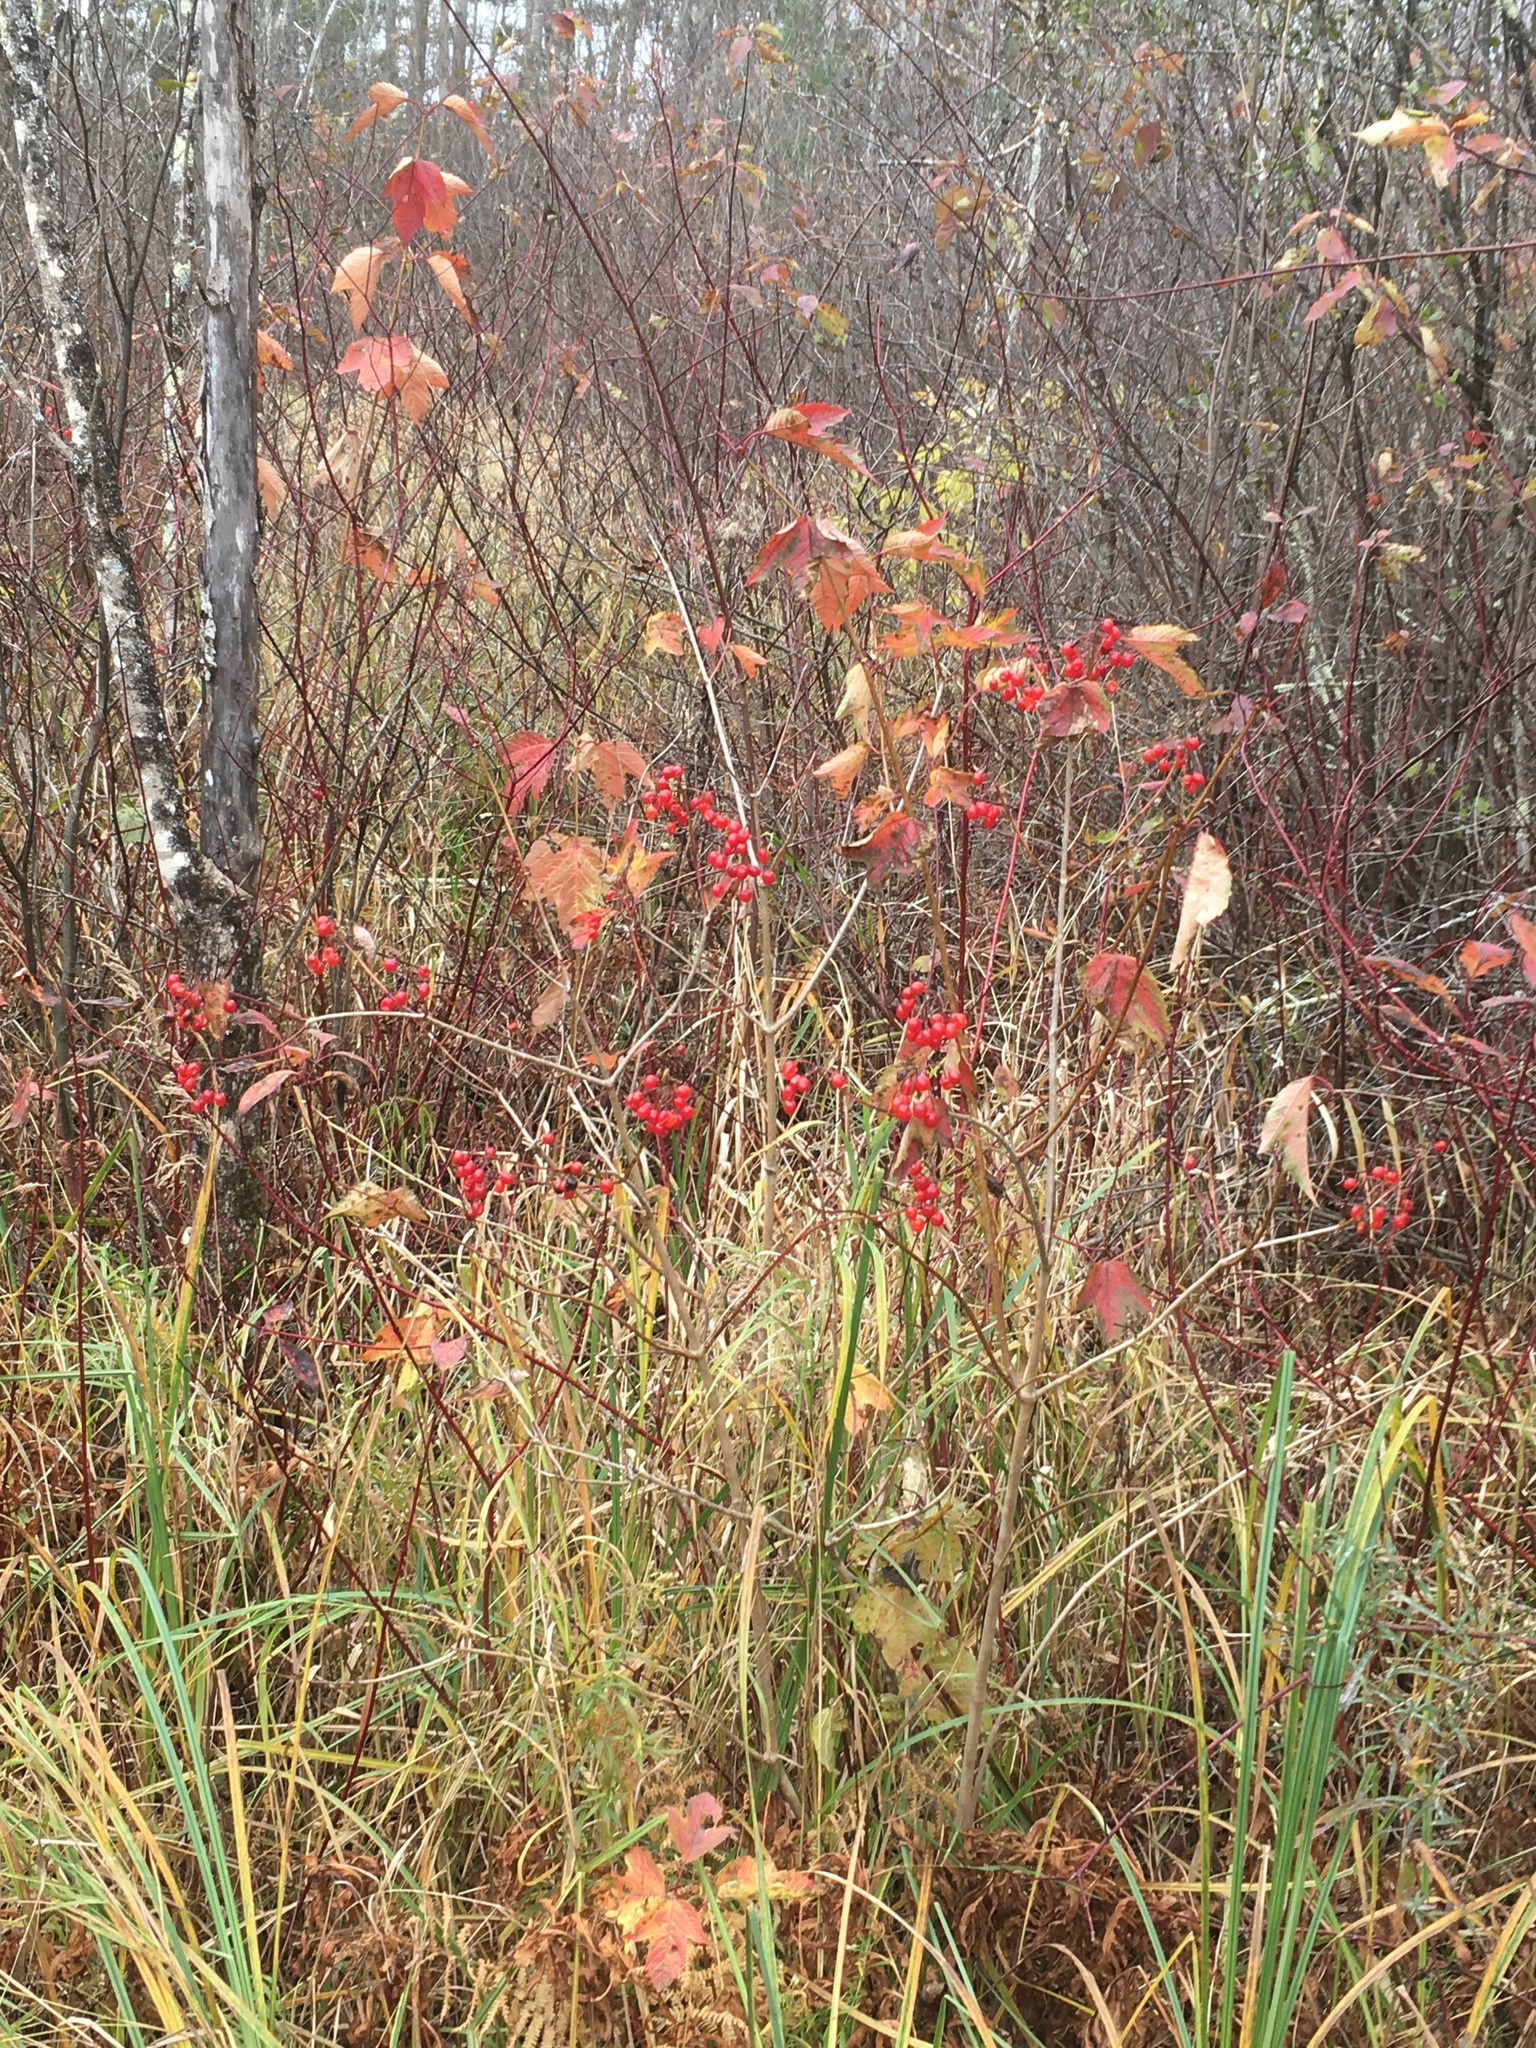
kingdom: Plantae
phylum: Tracheophyta
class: Magnoliopsida
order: Dipsacales
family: Viburnaceae
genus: Viburnum
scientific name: Viburnum opulus
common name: Guelder-rose
